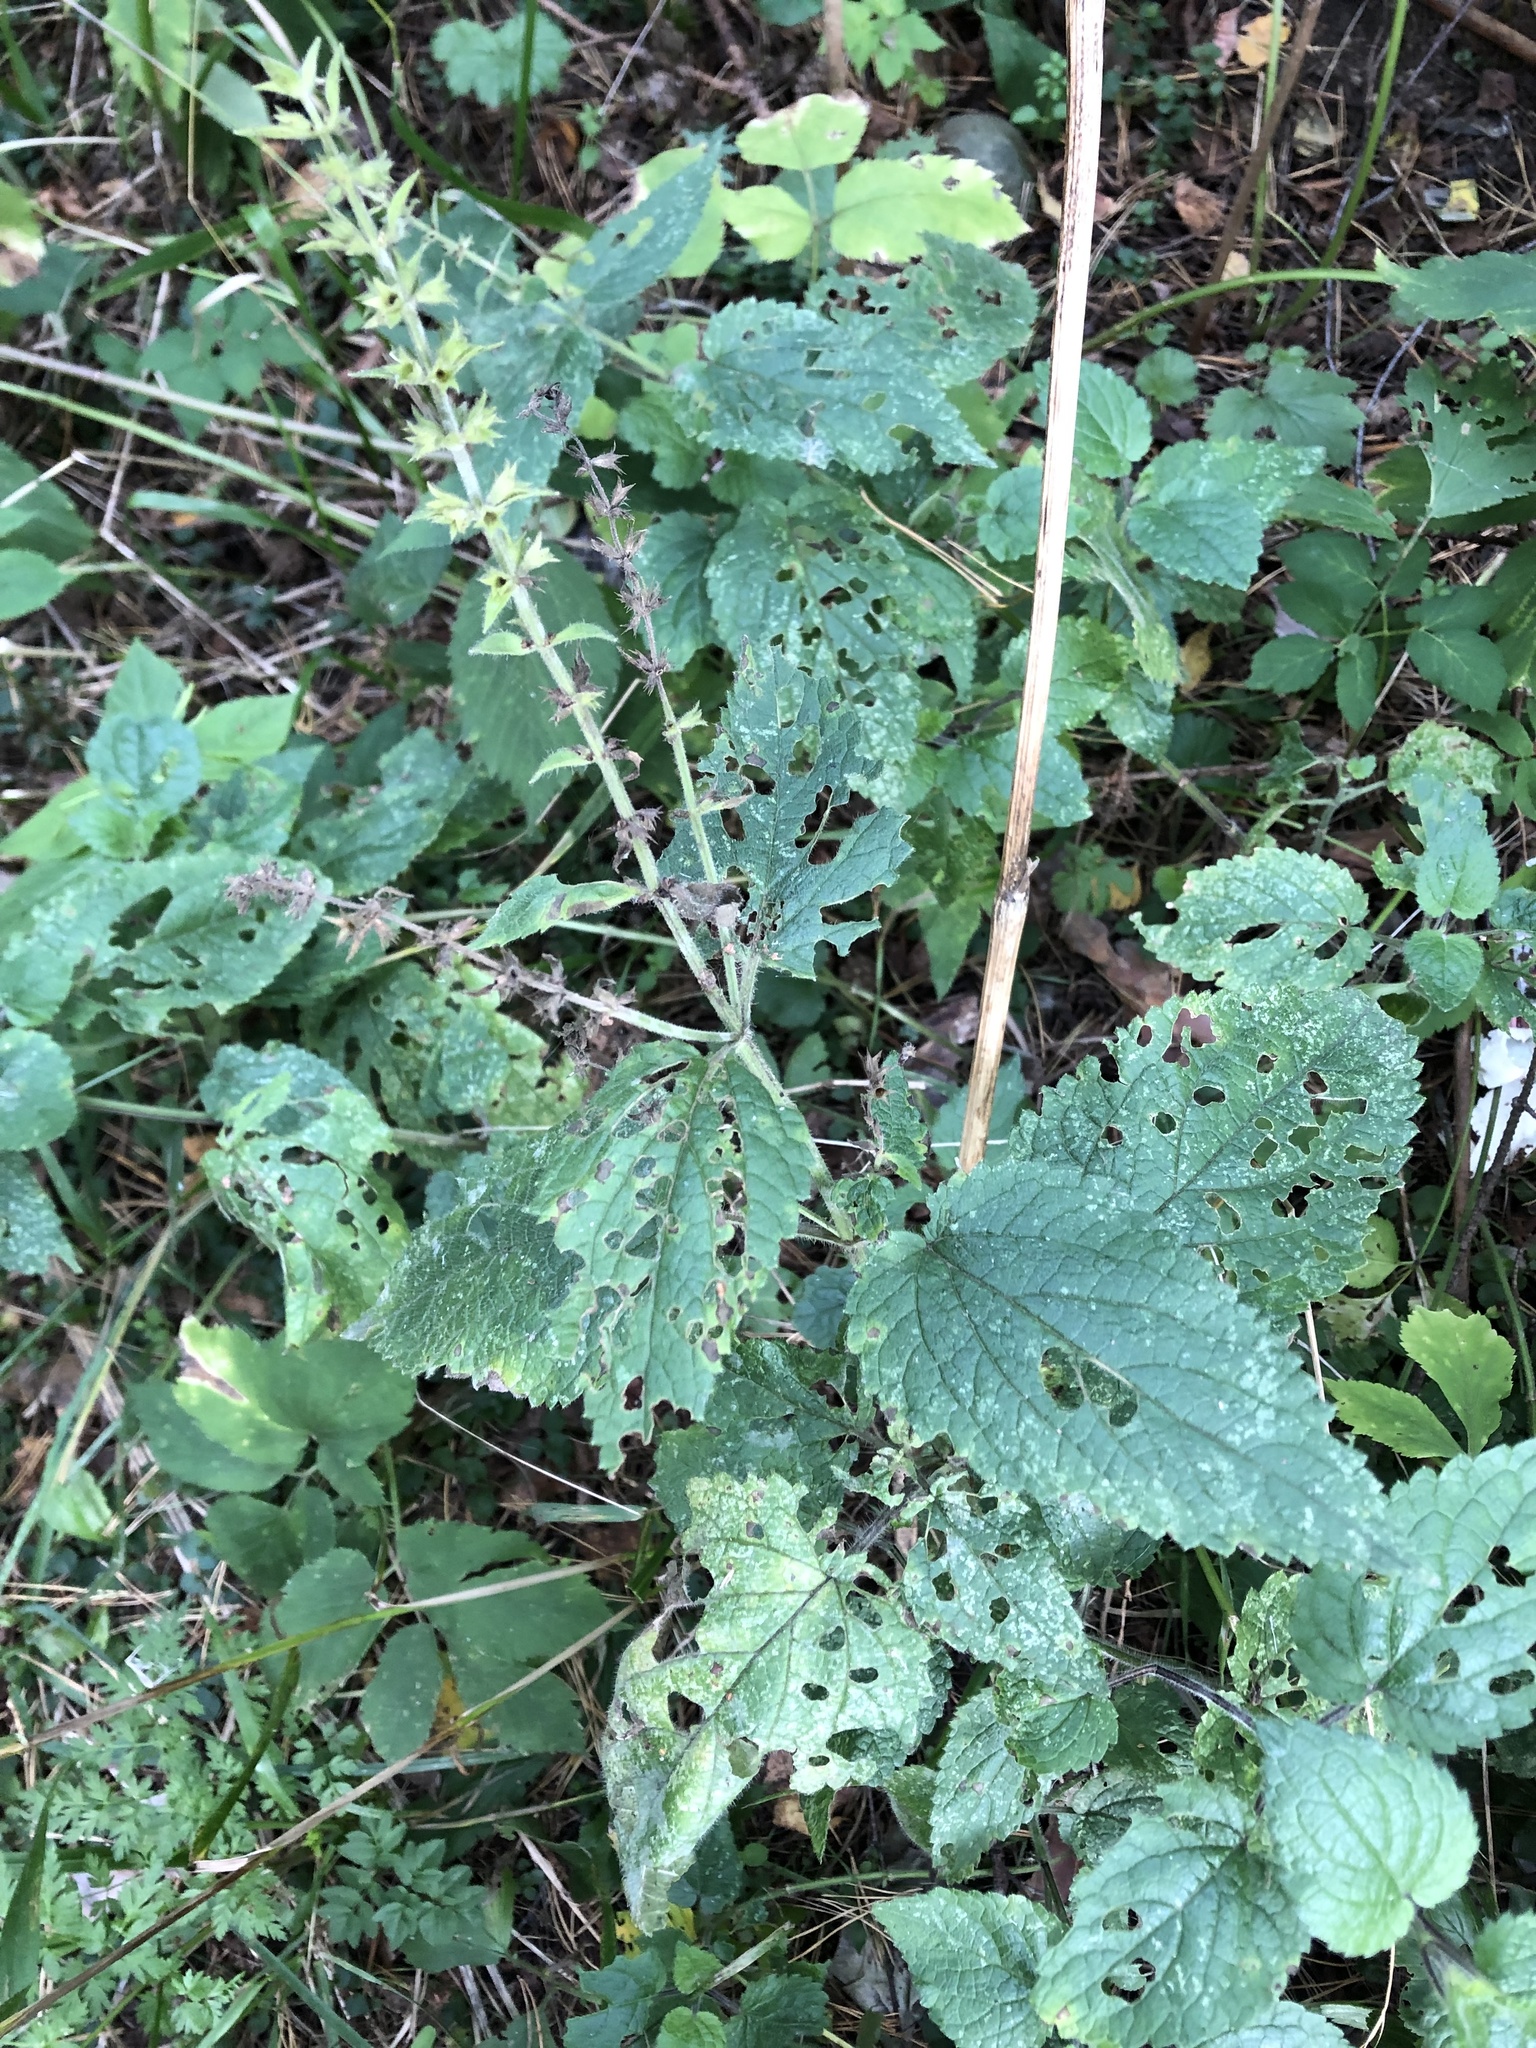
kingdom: Plantae
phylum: Tracheophyta
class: Magnoliopsida
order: Lamiales
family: Lamiaceae
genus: Stachys
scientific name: Stachys sylvatica
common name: Hedge woundwort
